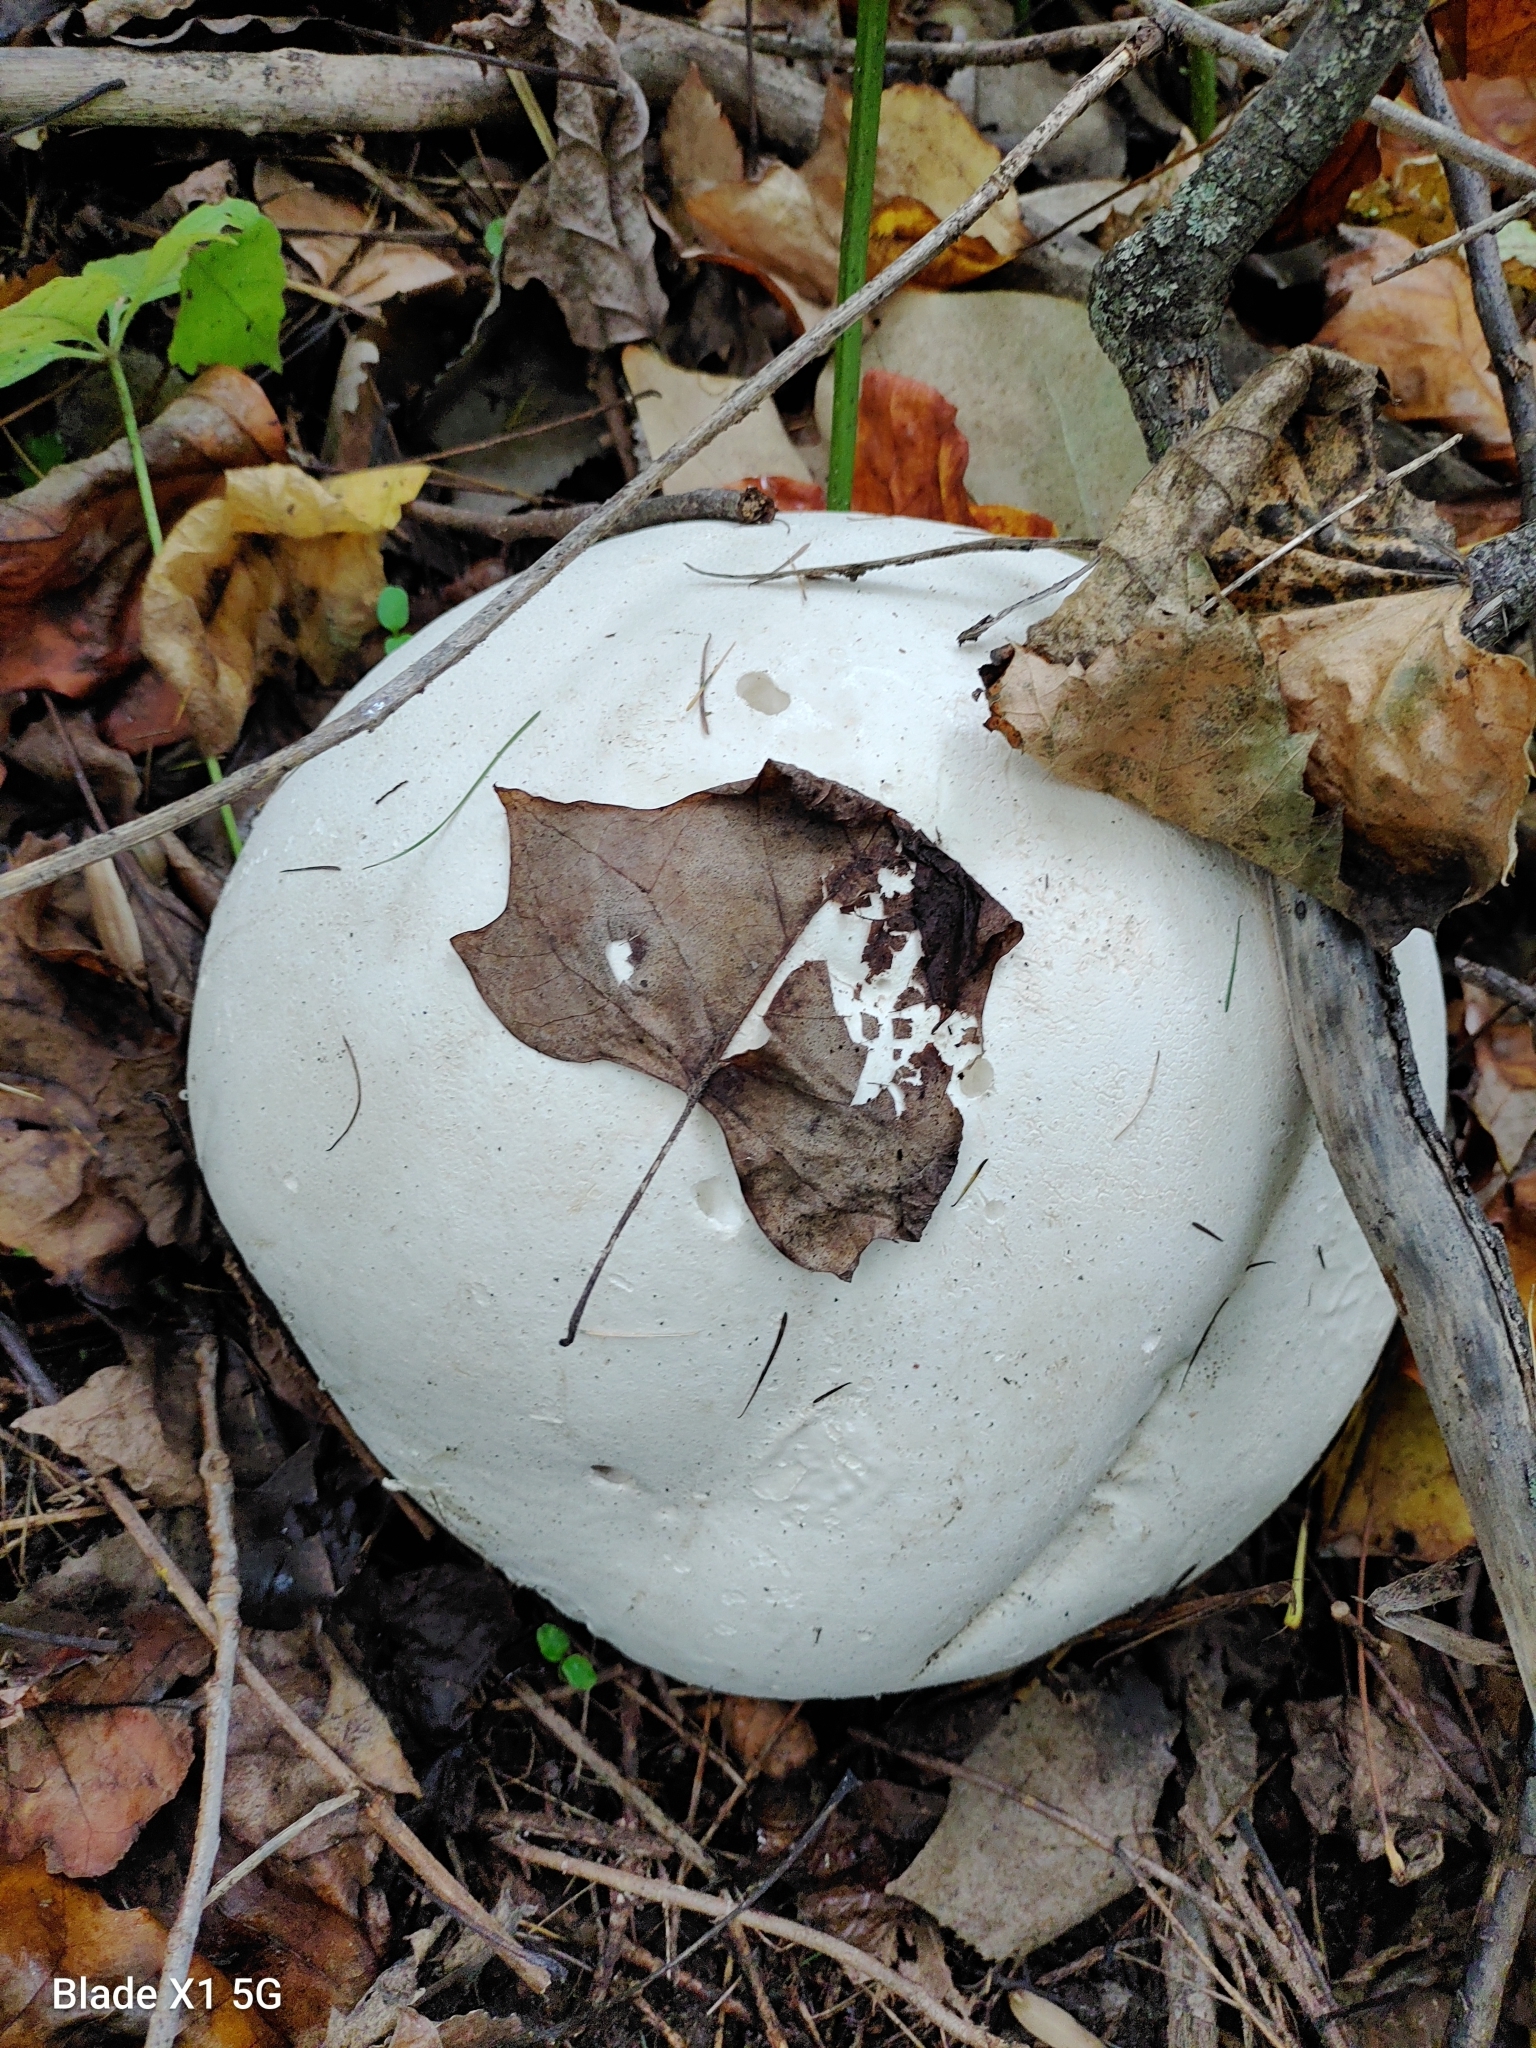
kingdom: Fungi
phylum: Basidiomycota
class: Agaricomycetes
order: Agaricales
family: Lycoperdaceae
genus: Calvatia
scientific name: Calvatia gigantea
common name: Giant puffball
